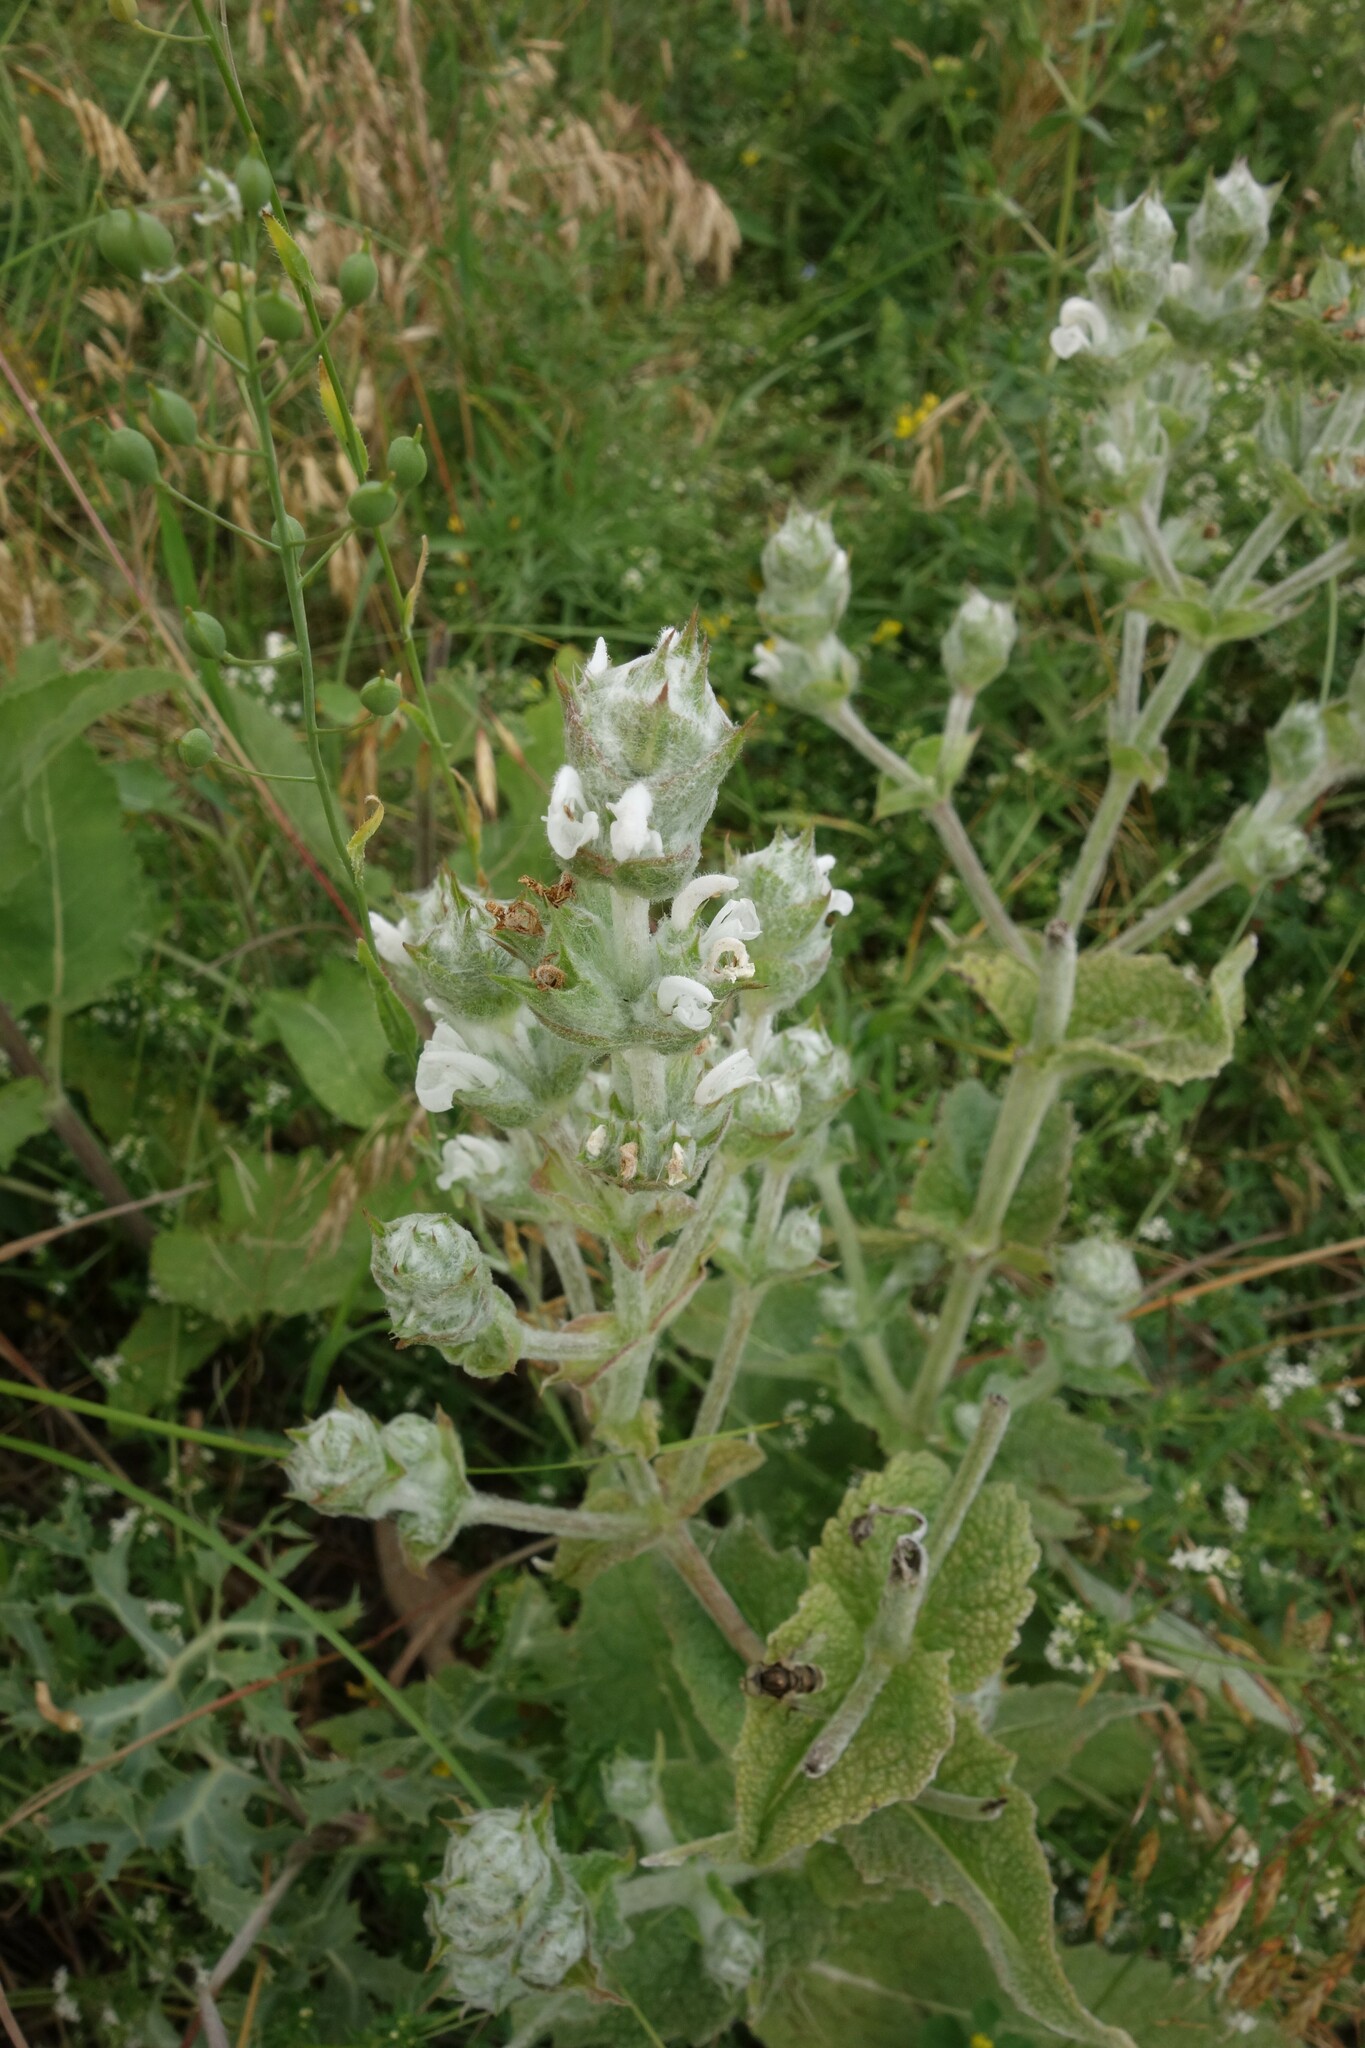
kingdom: Plantae
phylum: Tracheophyta
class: Magnoliopsida
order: Lamiales
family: Lamiaceae
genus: Salvia
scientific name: Salvia aethiopis
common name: Mediterranean sage
